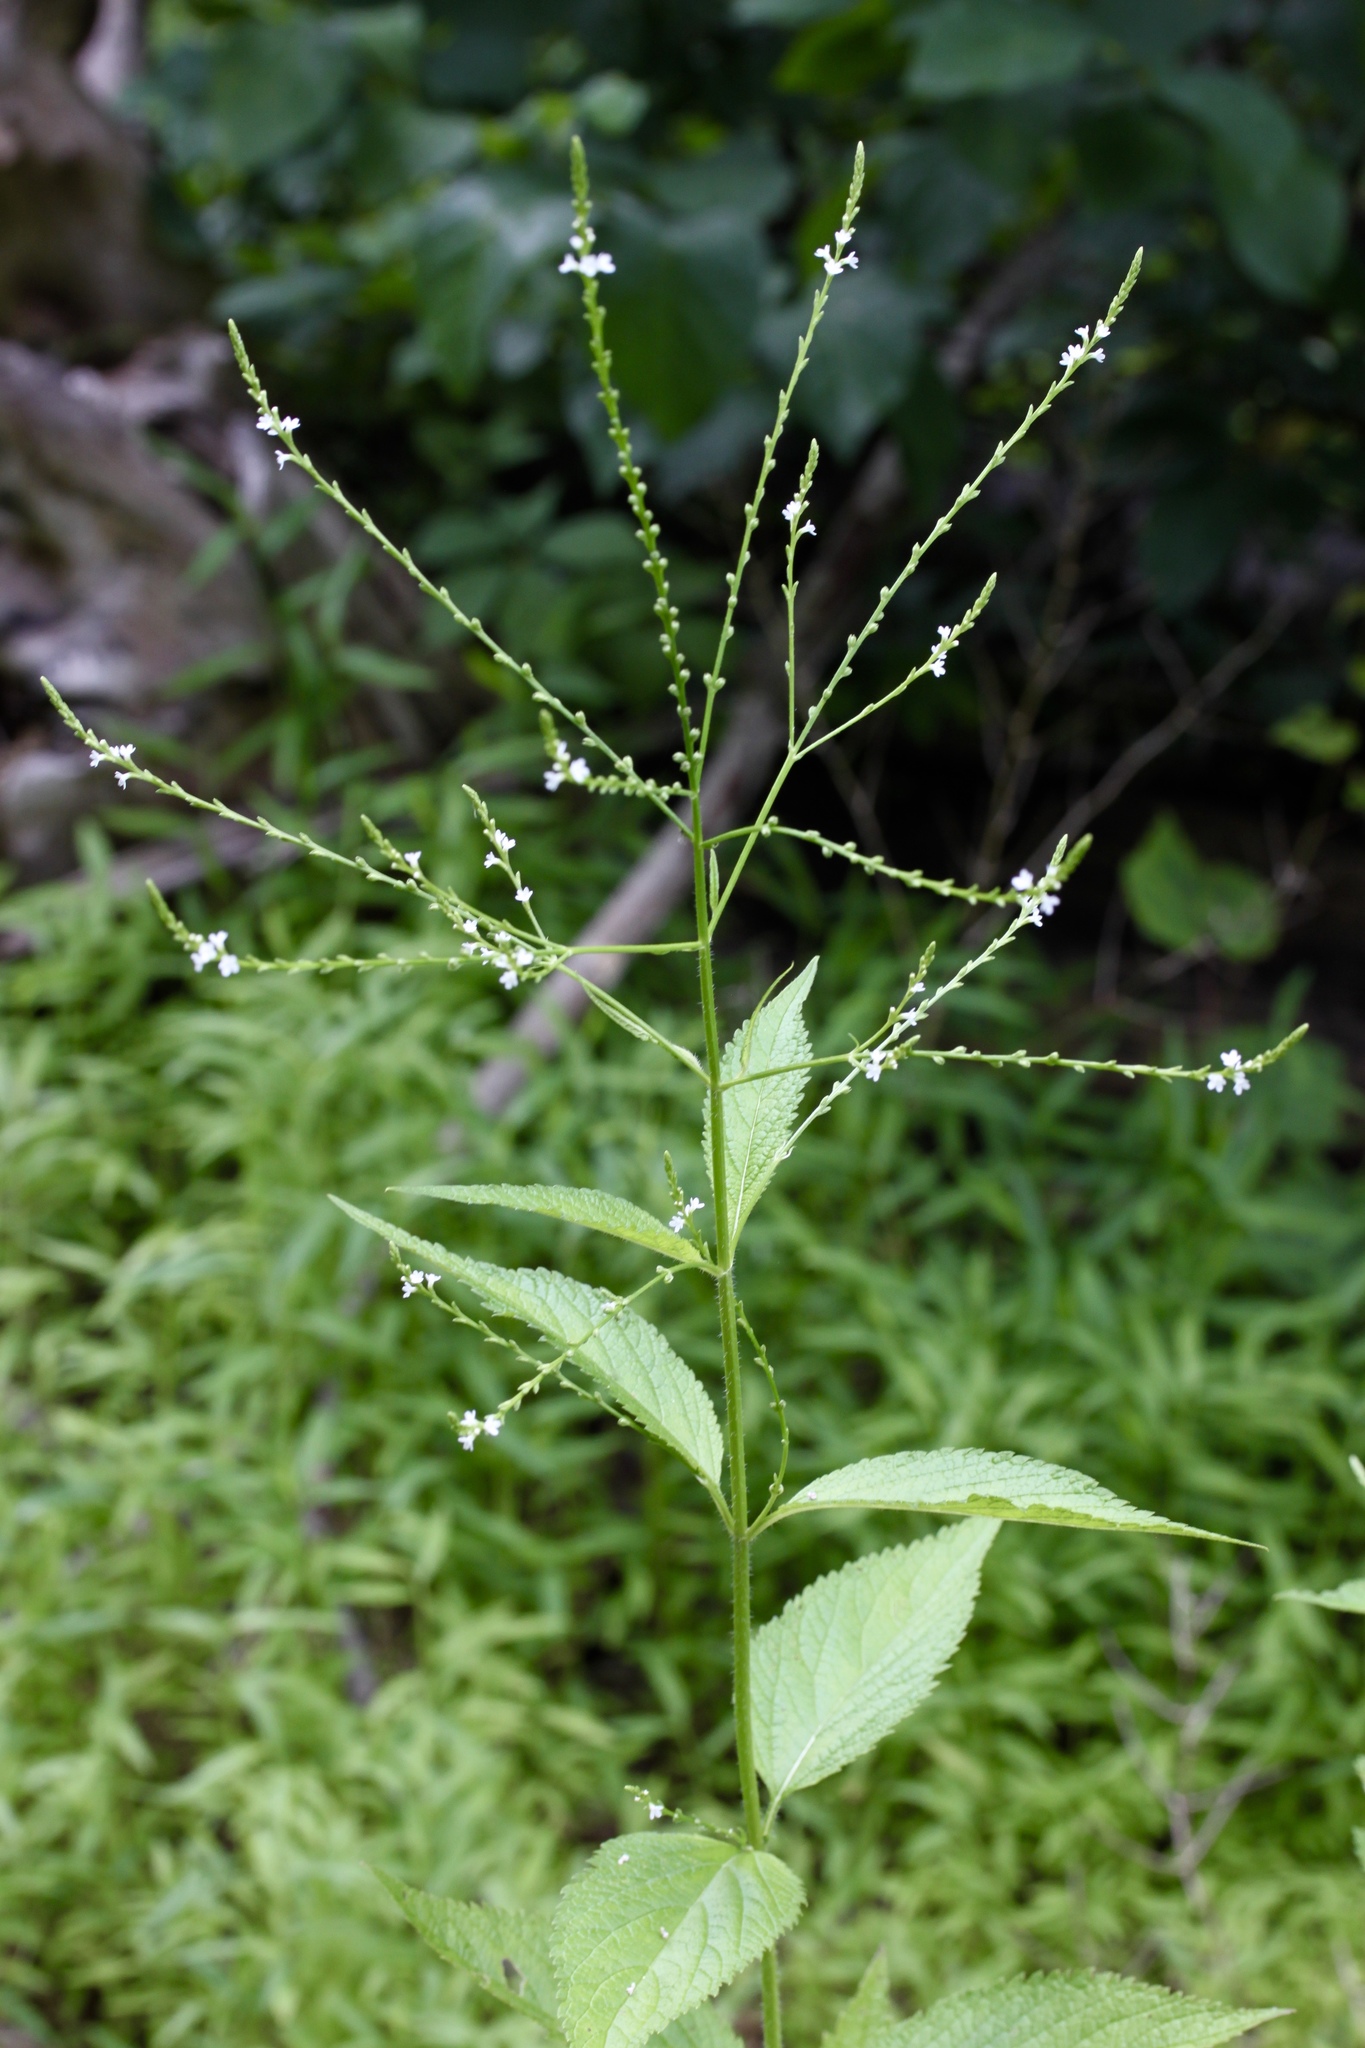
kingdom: Plantae
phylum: Tracheophyta
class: Magnoliopsida
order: Lamiales
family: Verbenaceae
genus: Verbena
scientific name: Verbena urticifolia
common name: Nettle-leaved vervain
